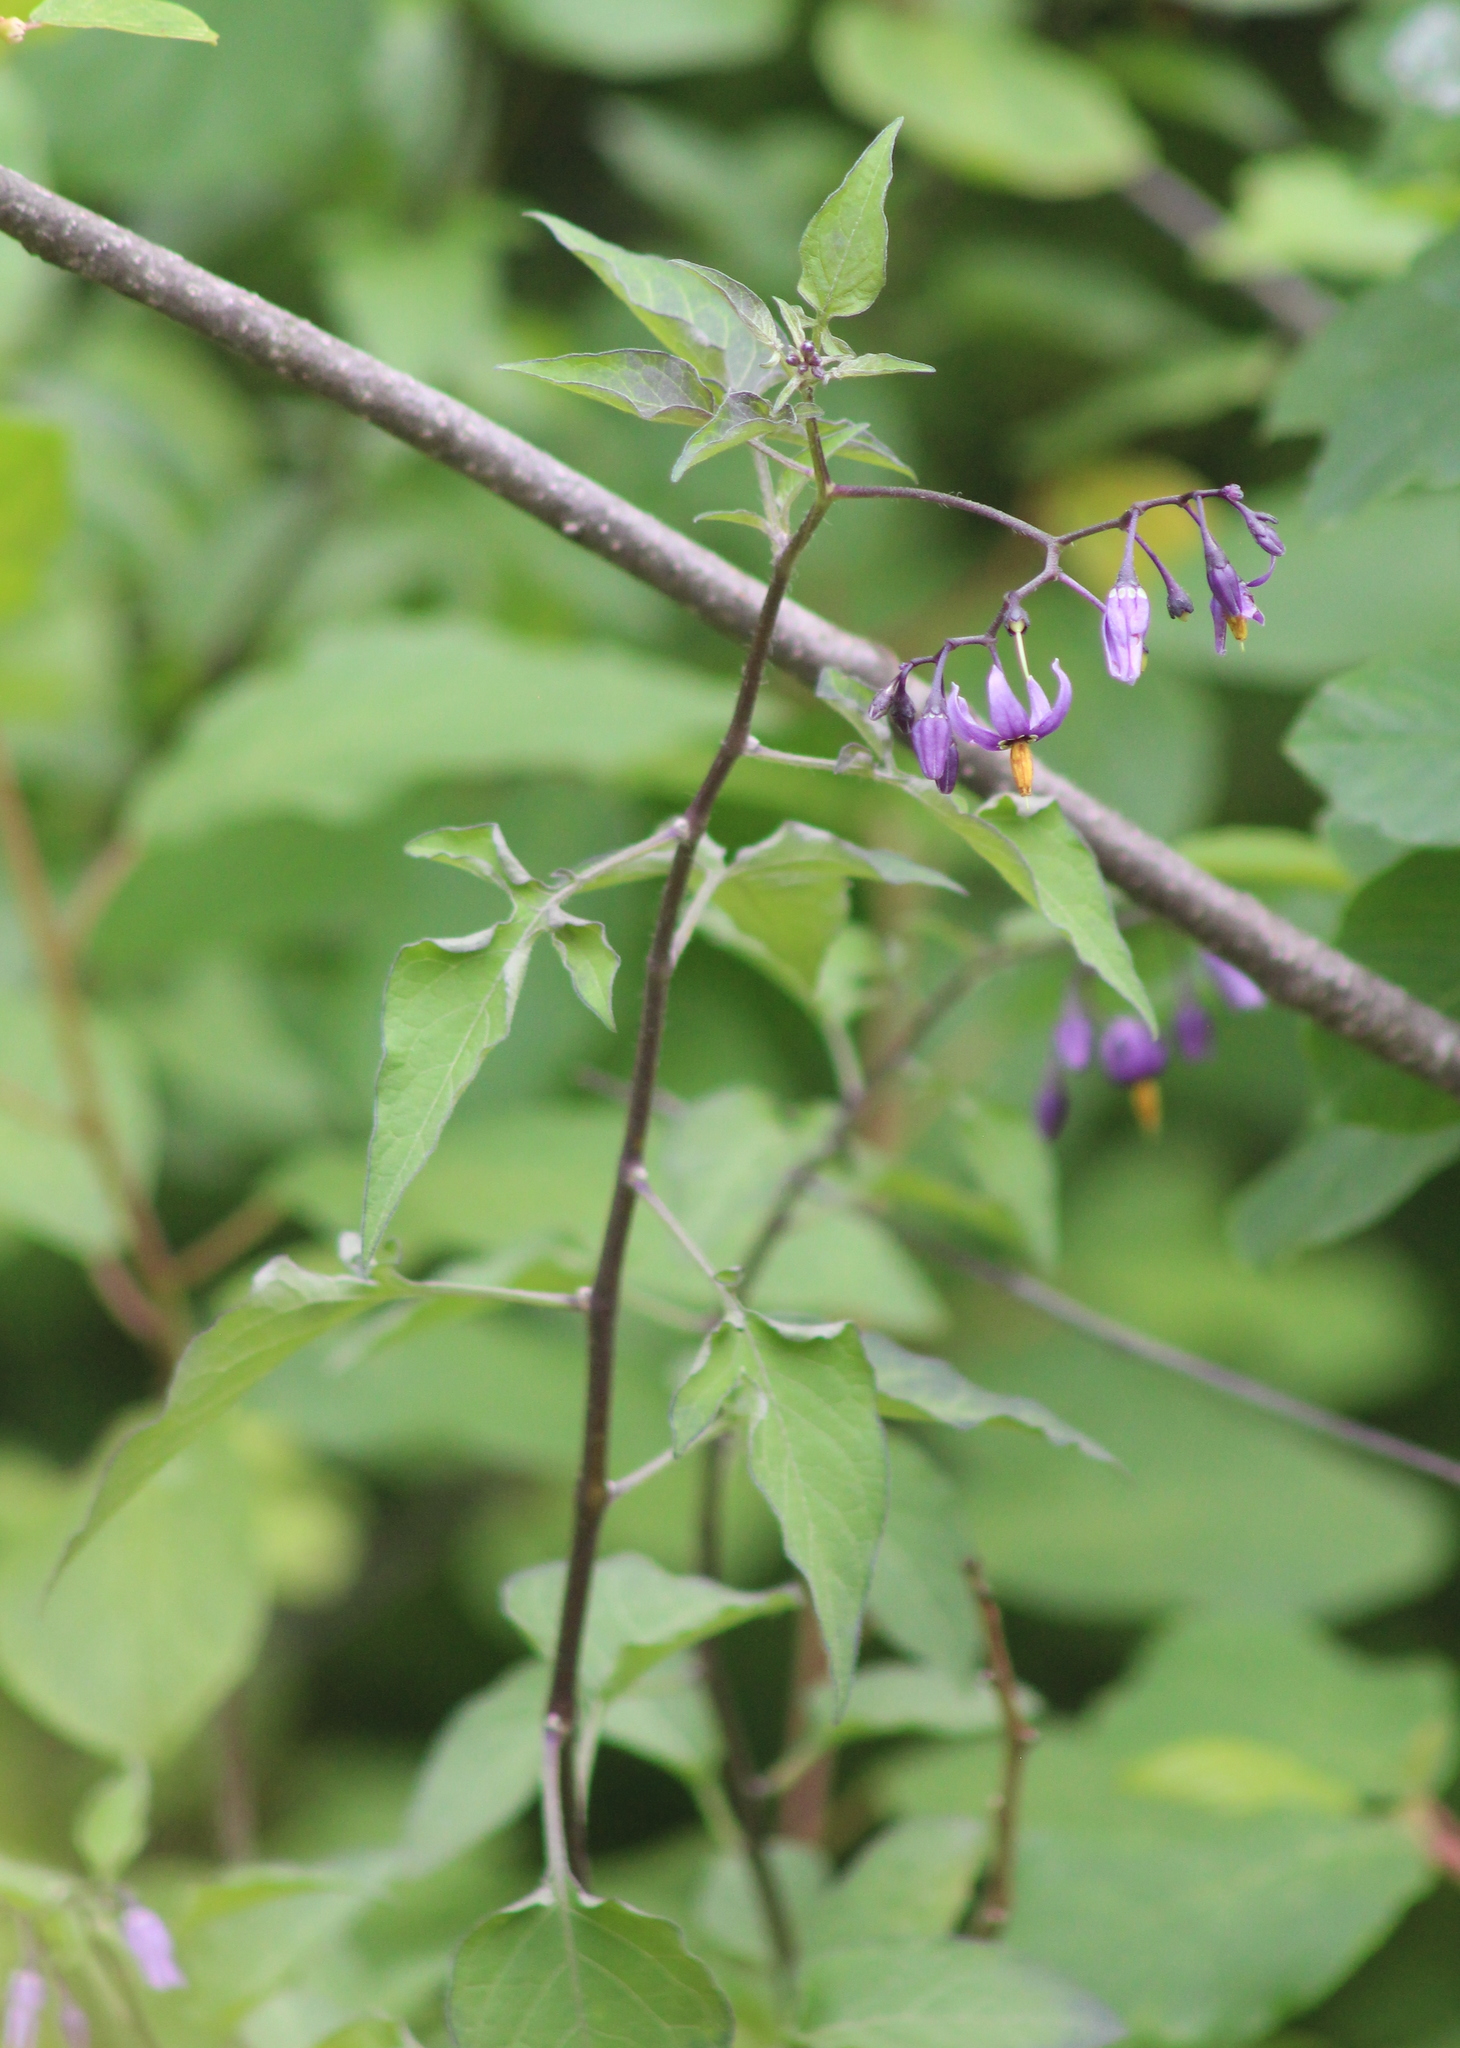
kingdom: Plantae
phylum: Tracheophyta
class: Magnoliopsida
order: Solanales
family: Solanaceae
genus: Solanum
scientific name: Solanum dulcamara
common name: Climbing nightshade
